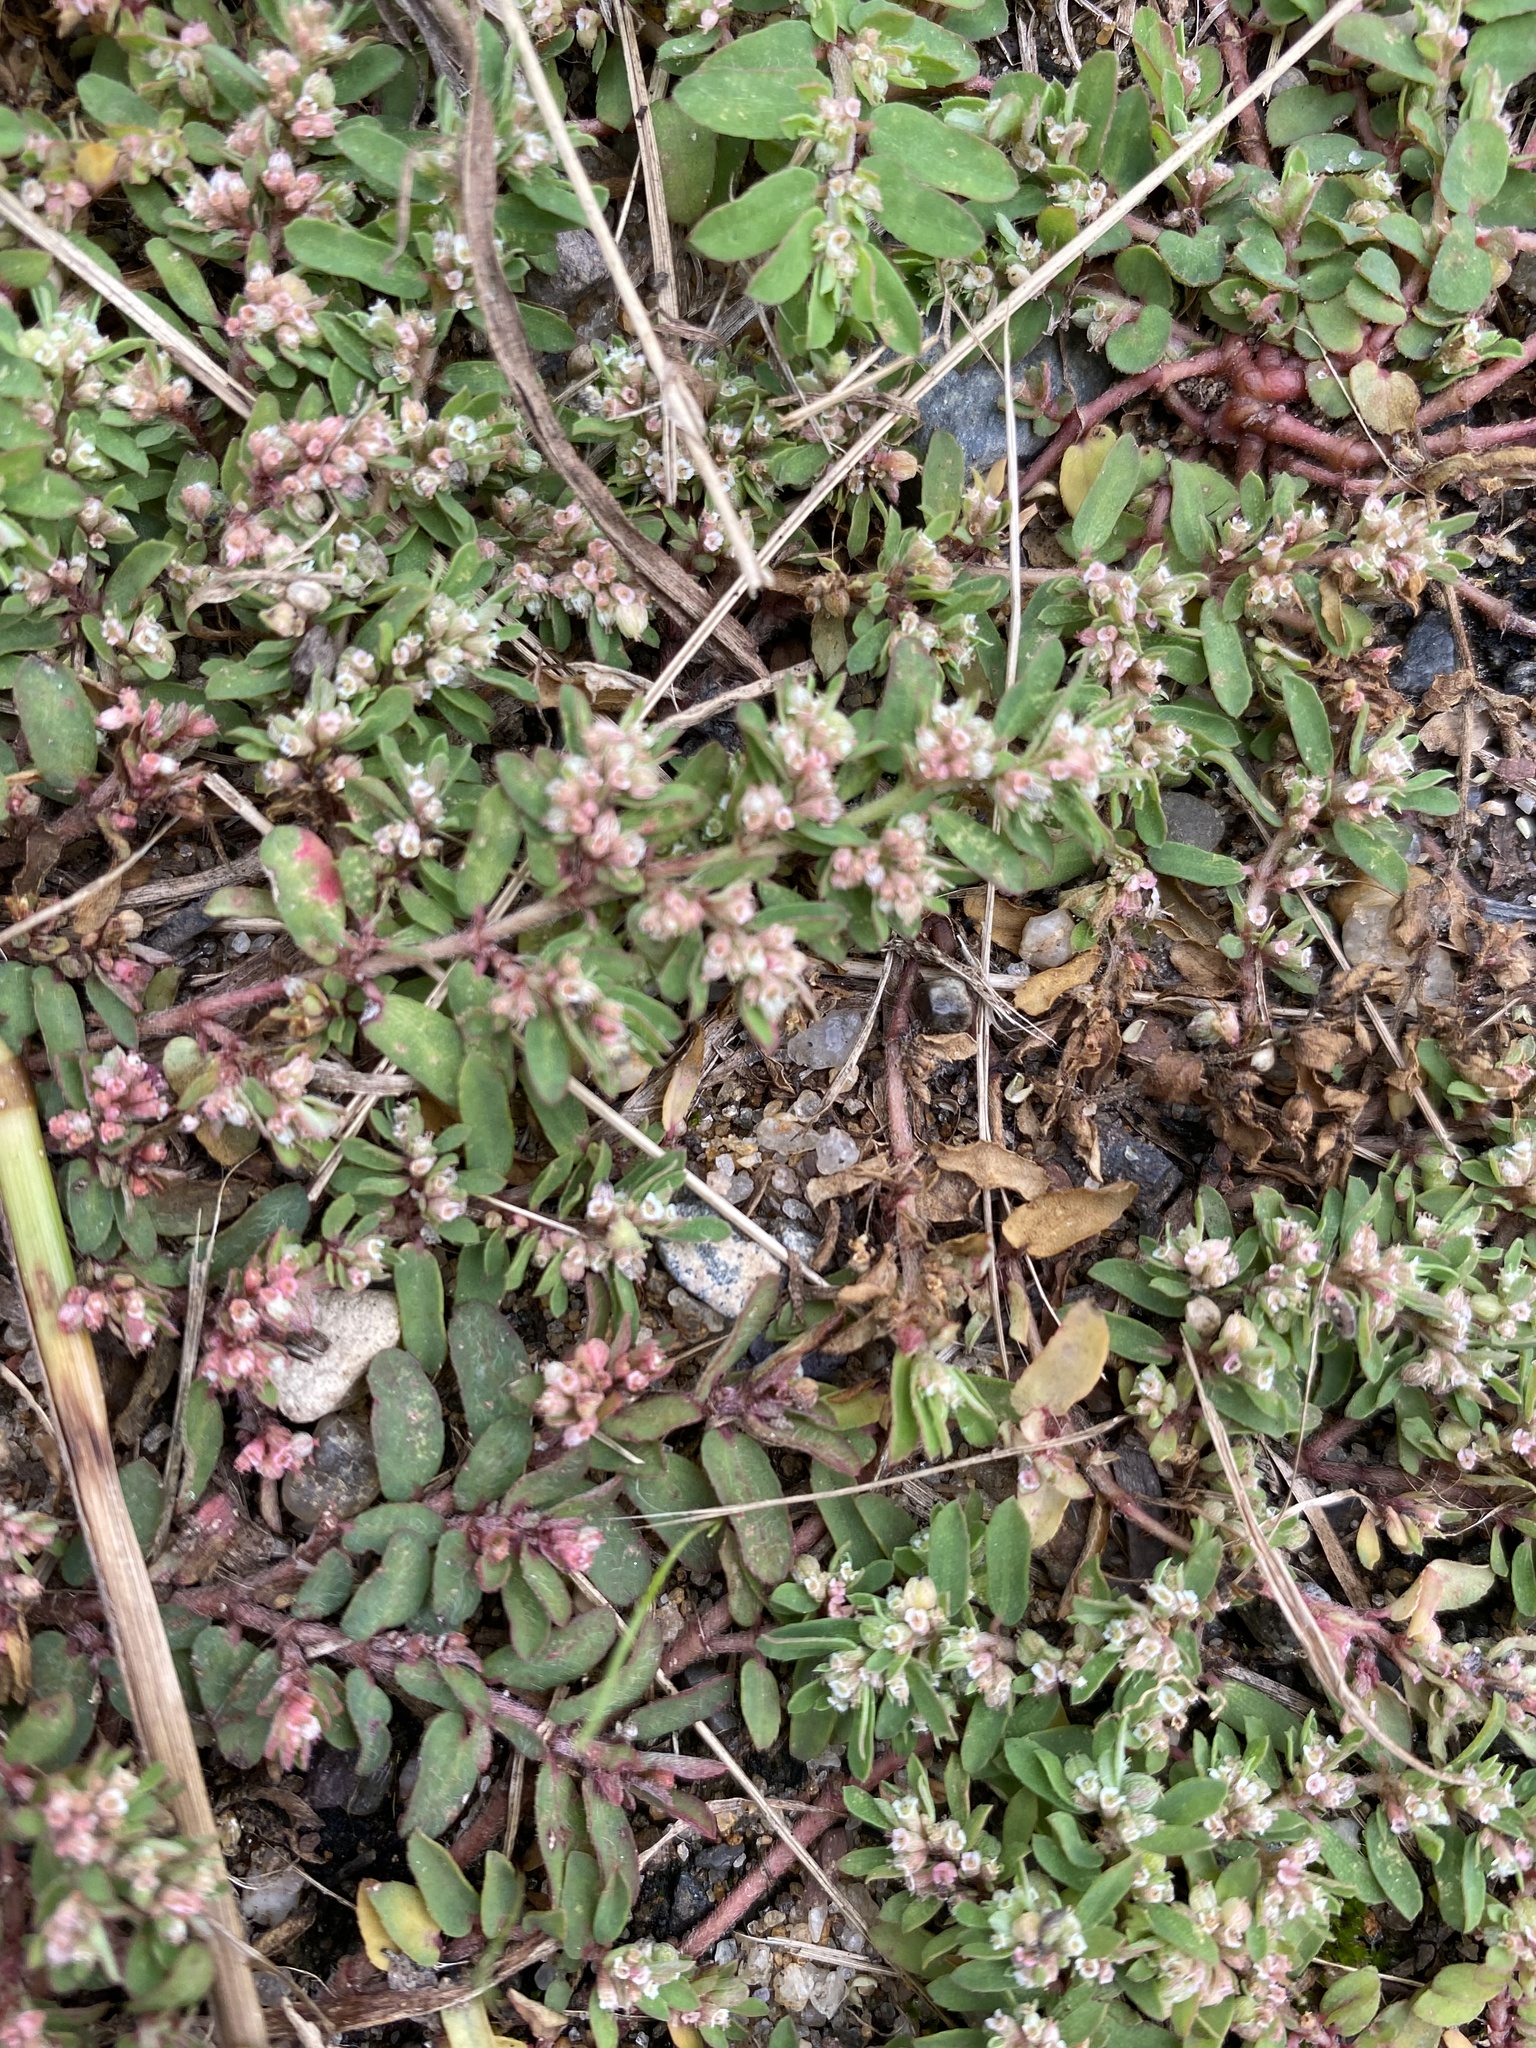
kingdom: Plantae
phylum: Tracheophyta
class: Magnoliopsida
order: Malpighiales
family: Euphorbiaceae
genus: Euphorbia
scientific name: Euphorbia maculata
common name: Spotted spurge
